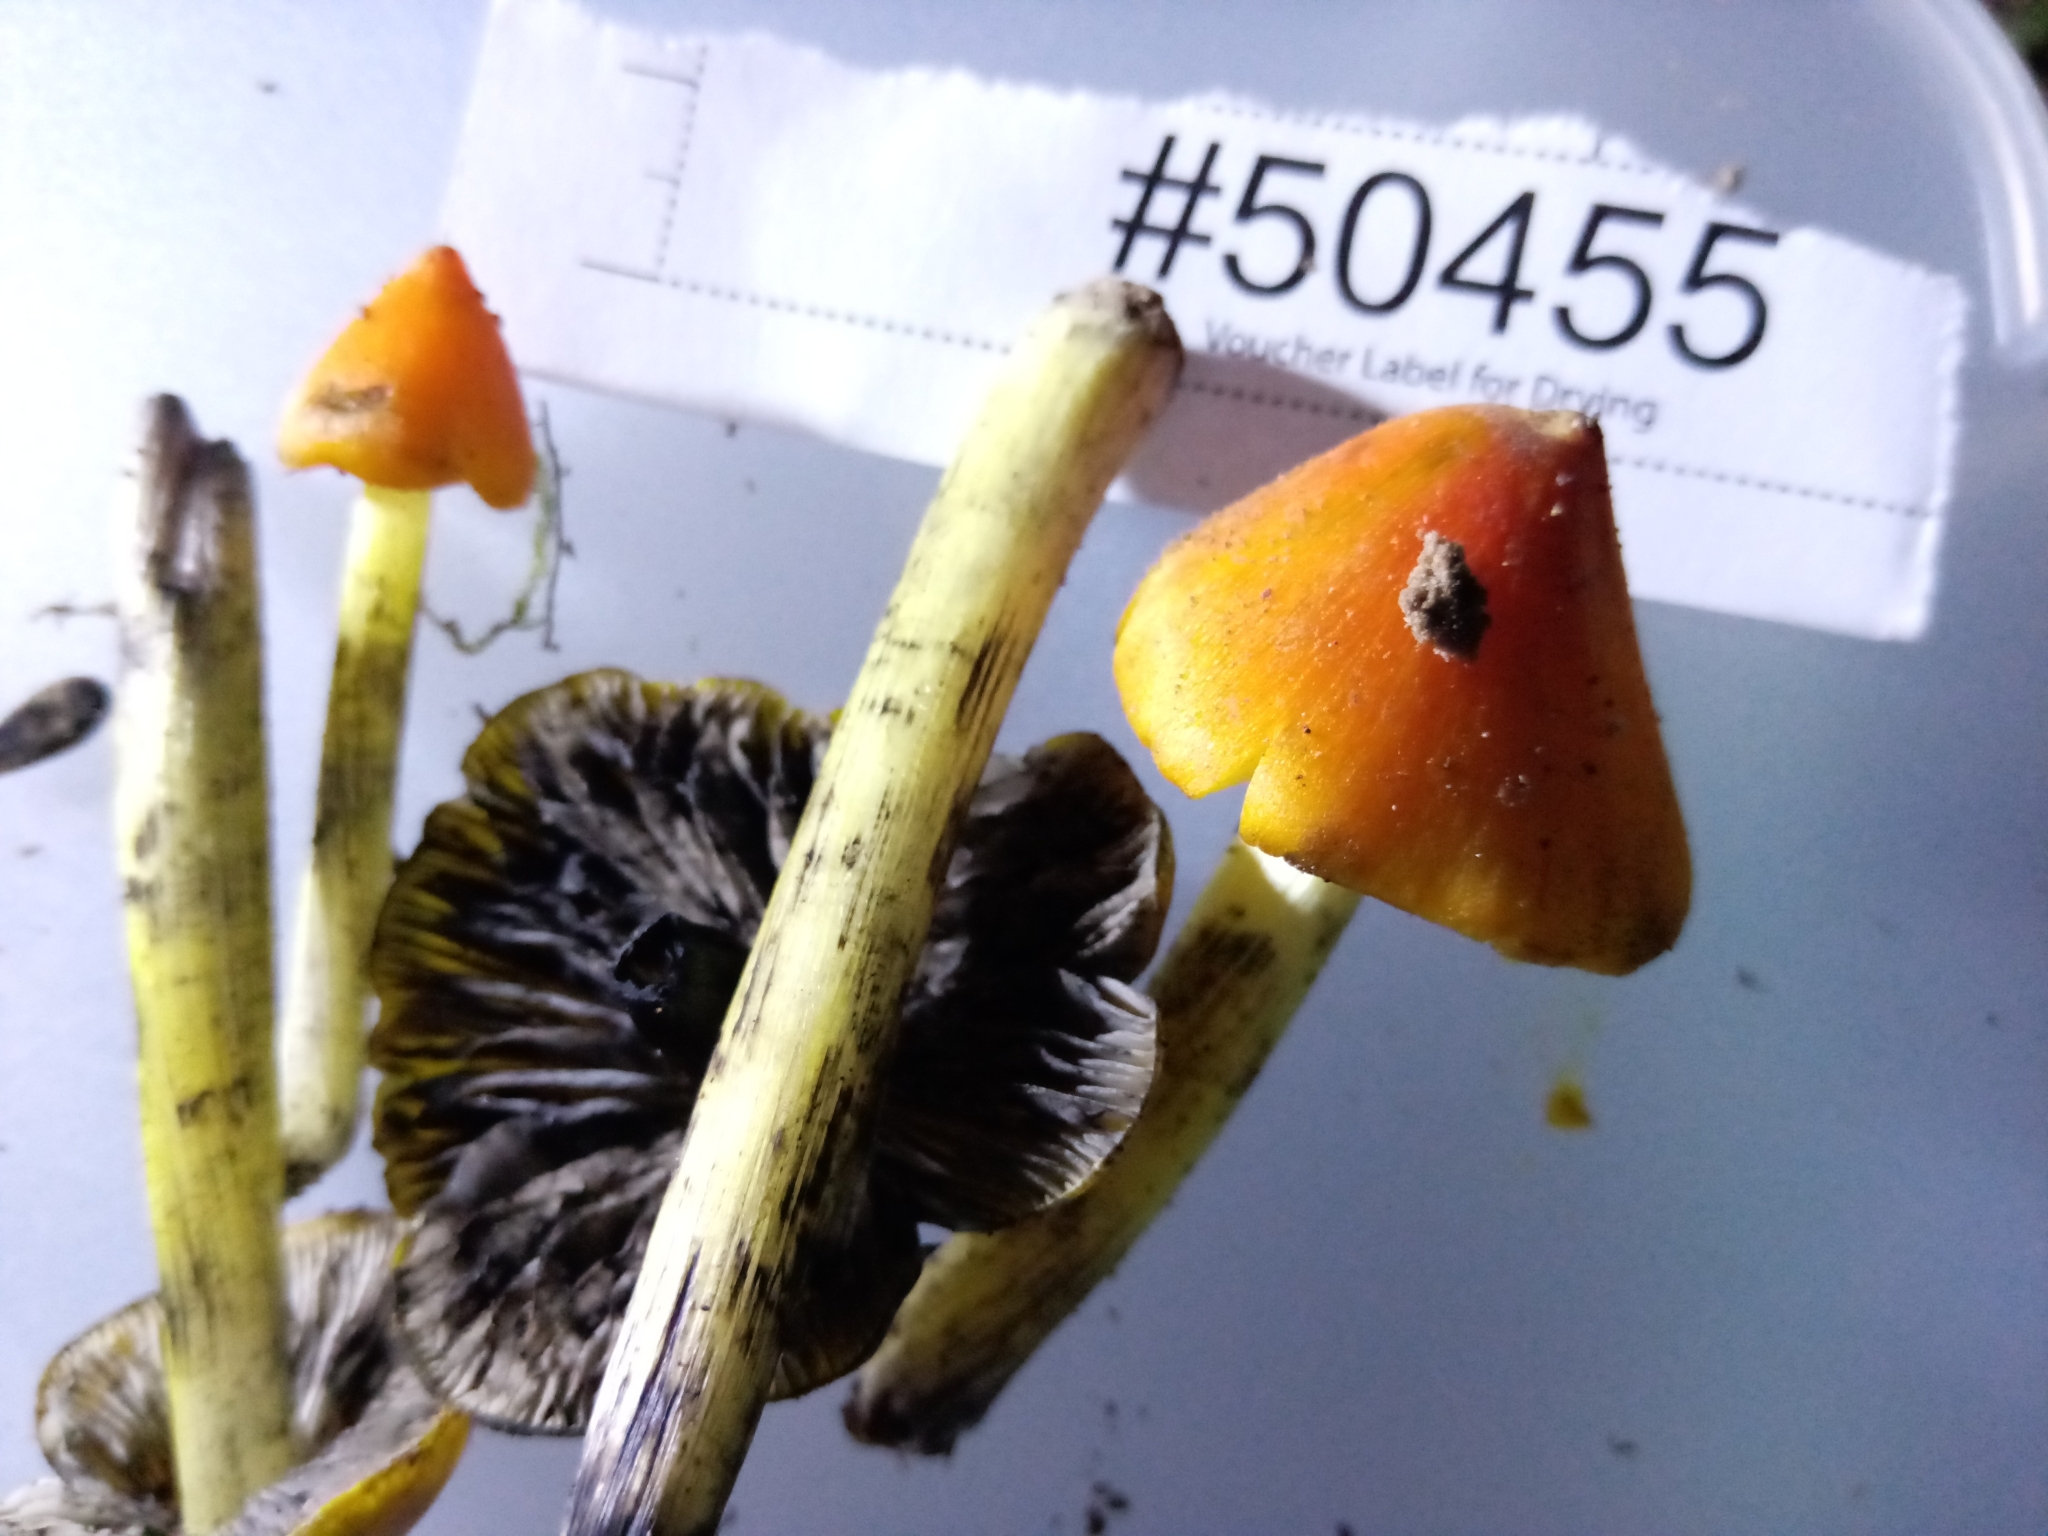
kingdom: Fungi
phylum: Basidiomycota
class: Agaricomycetes
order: Agaricales
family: Hygrophoraceae
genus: Hygrocybe
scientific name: Hygrocybe conica
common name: Blackening wax-cap
